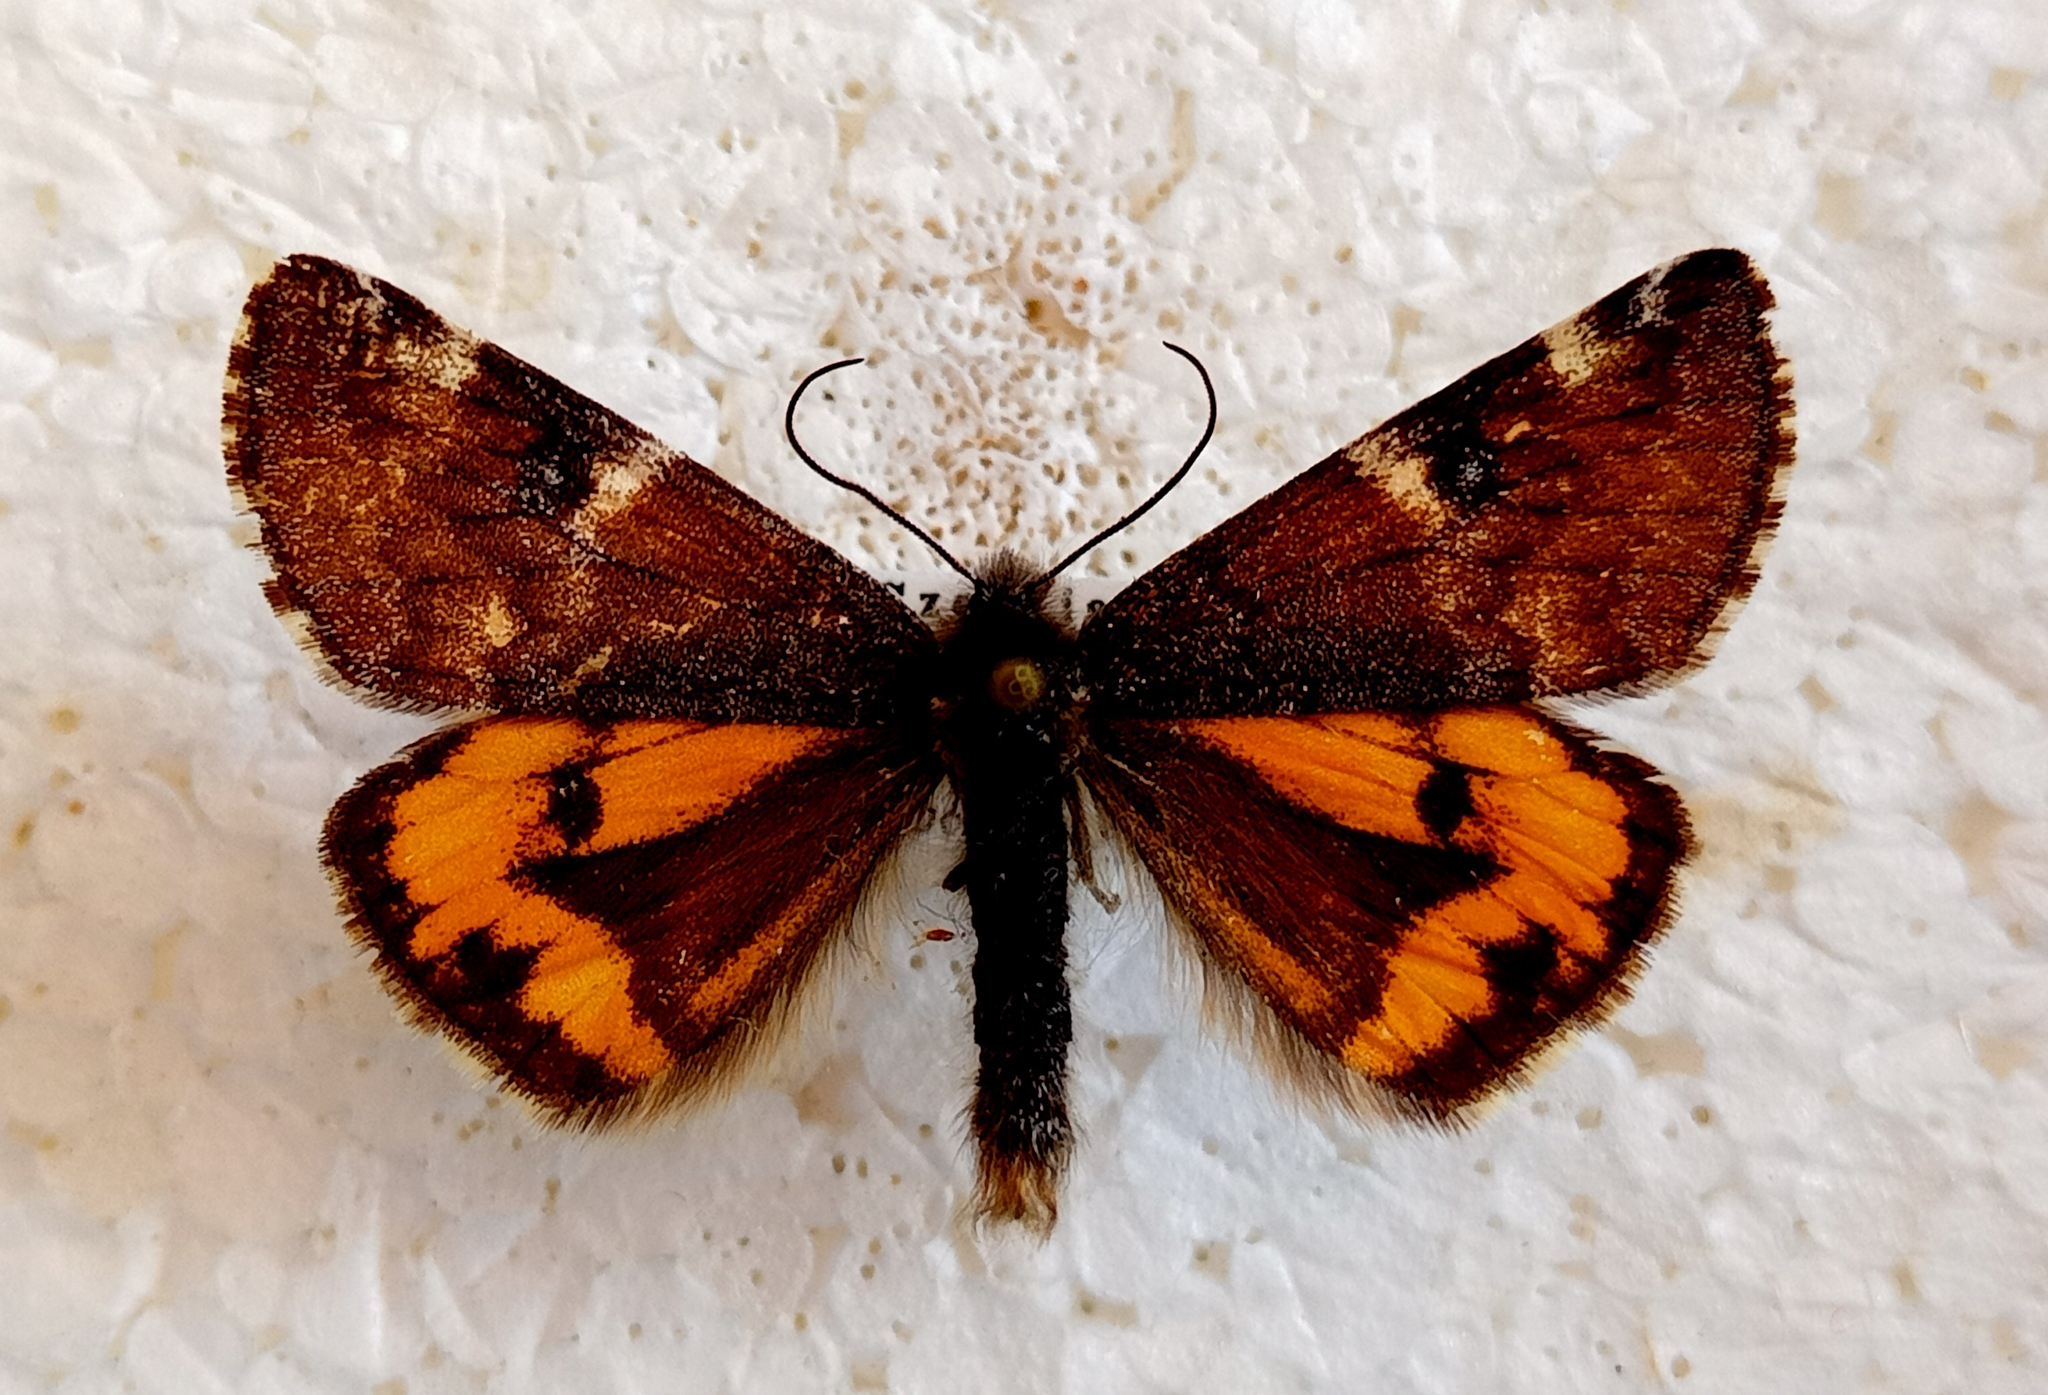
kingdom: Animalia
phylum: Arthropoda
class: Insecta
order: Lepidoptera
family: Geometridae
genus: Archiearis
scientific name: Archiearis parthenias
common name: Orange underwing
